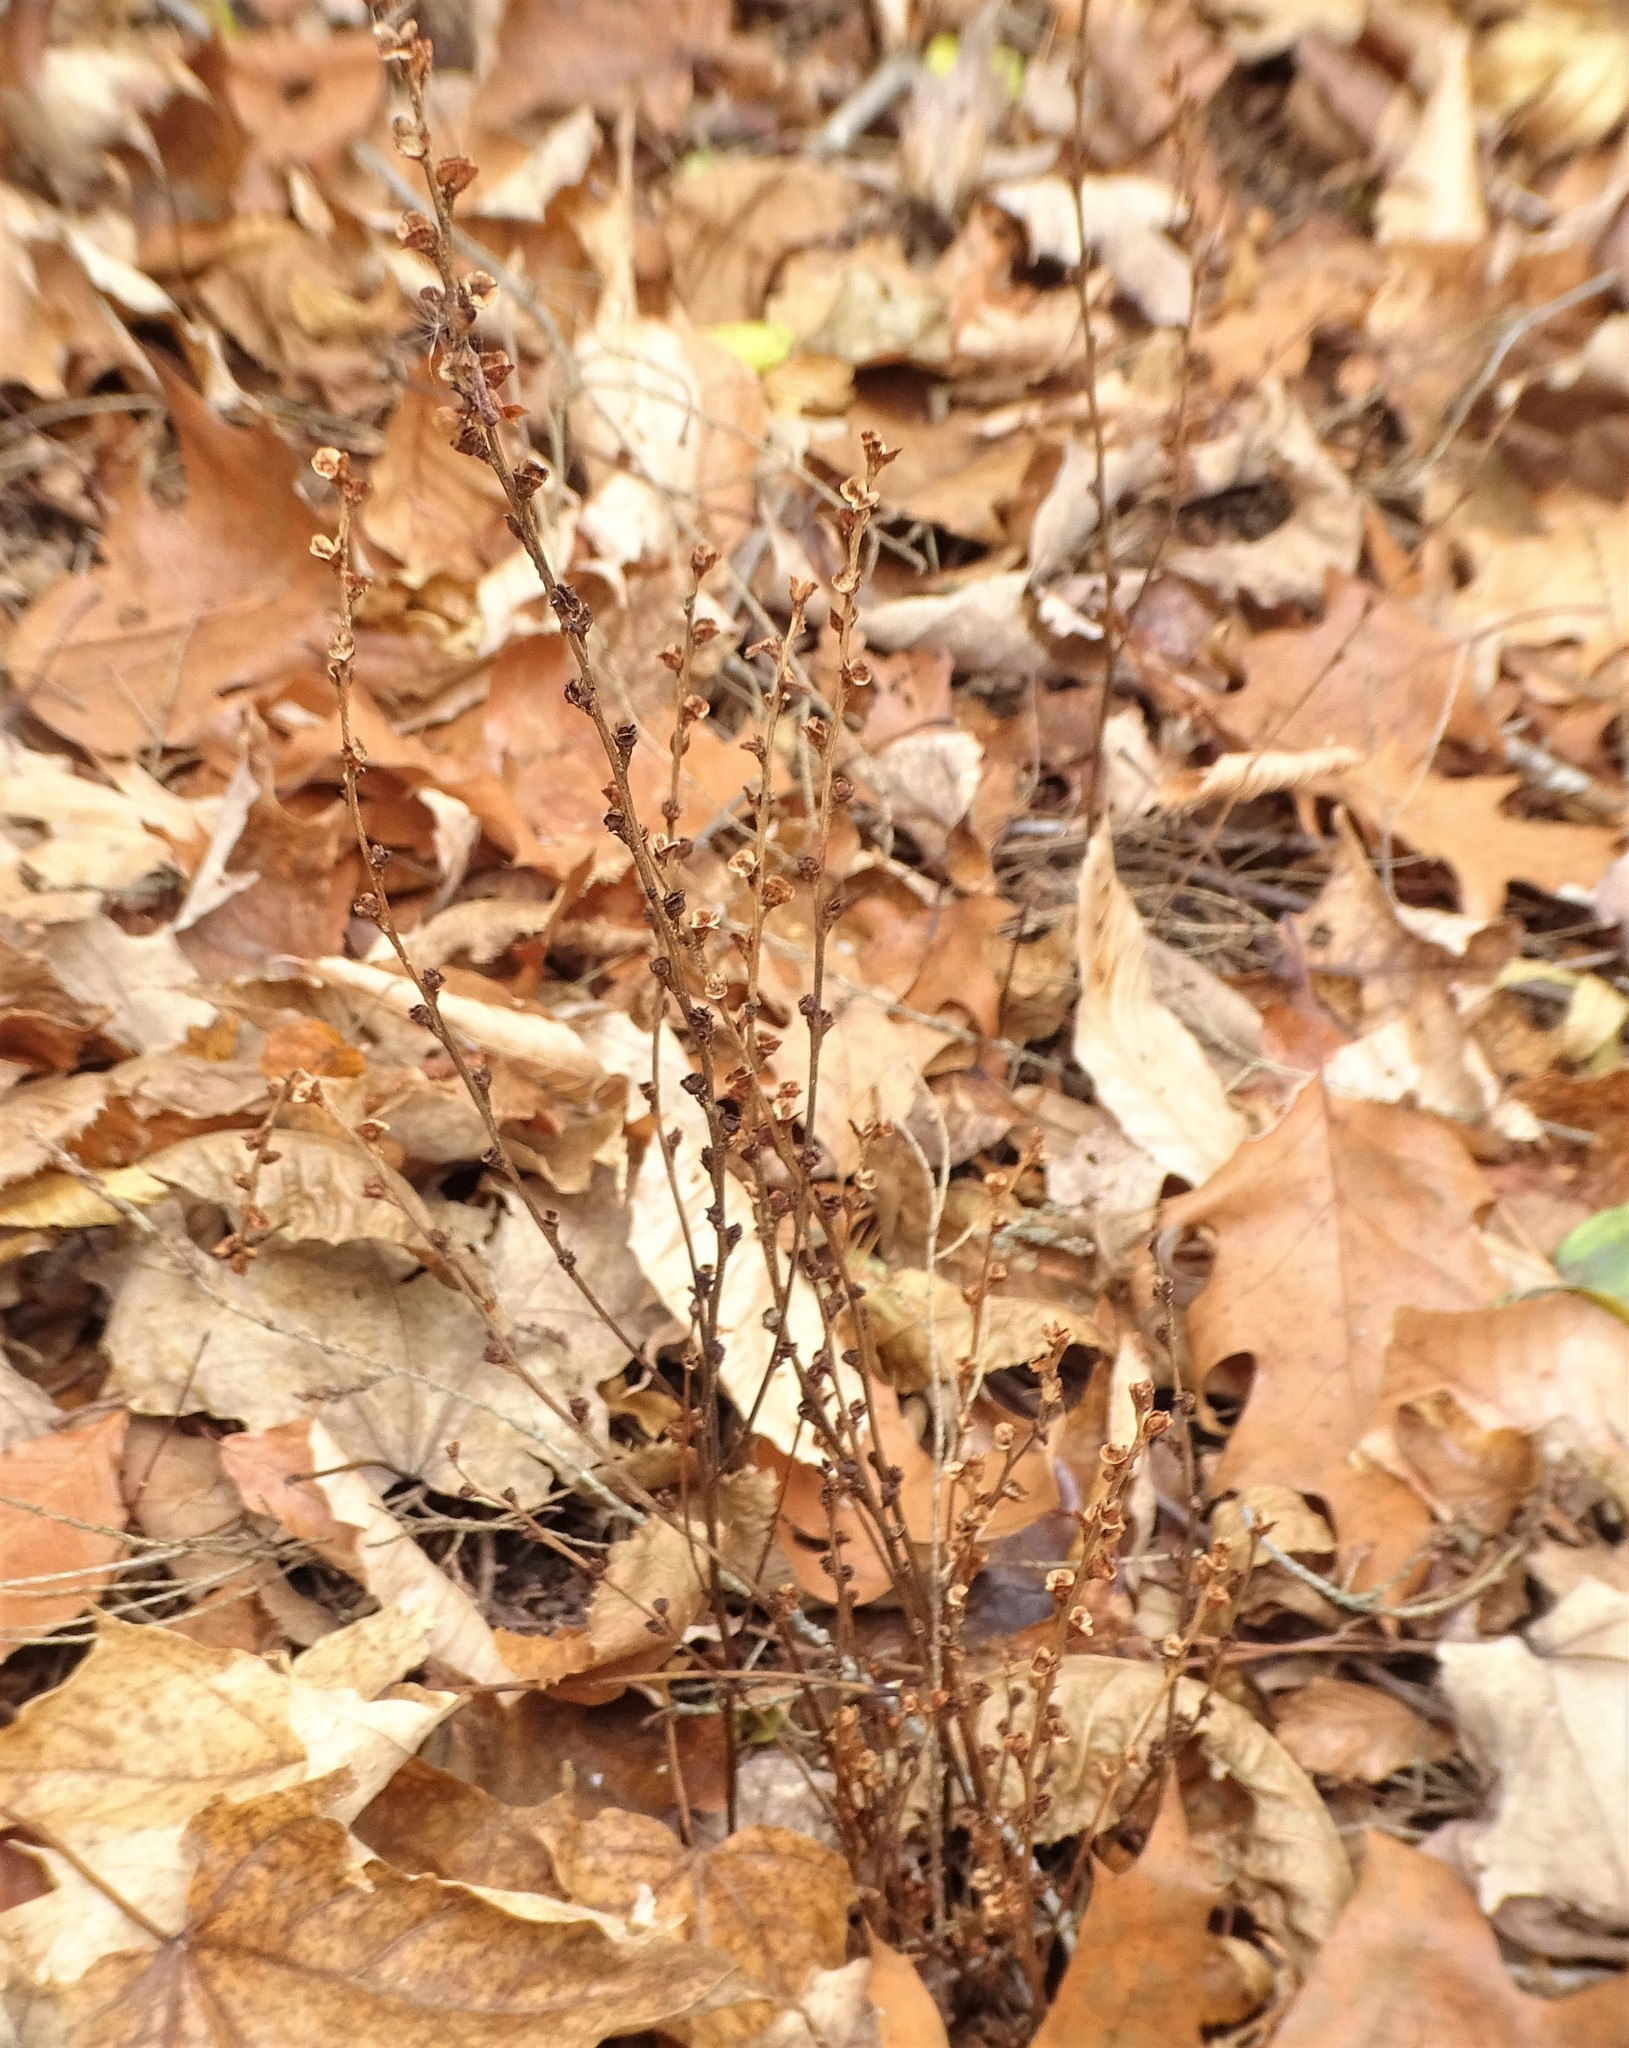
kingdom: Plantae
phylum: Tracheophyta
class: Magnoliopsida
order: Lamiales
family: Orobanchaceae
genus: Epifagus
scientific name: Epifagus virginiana
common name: Beechdrops
